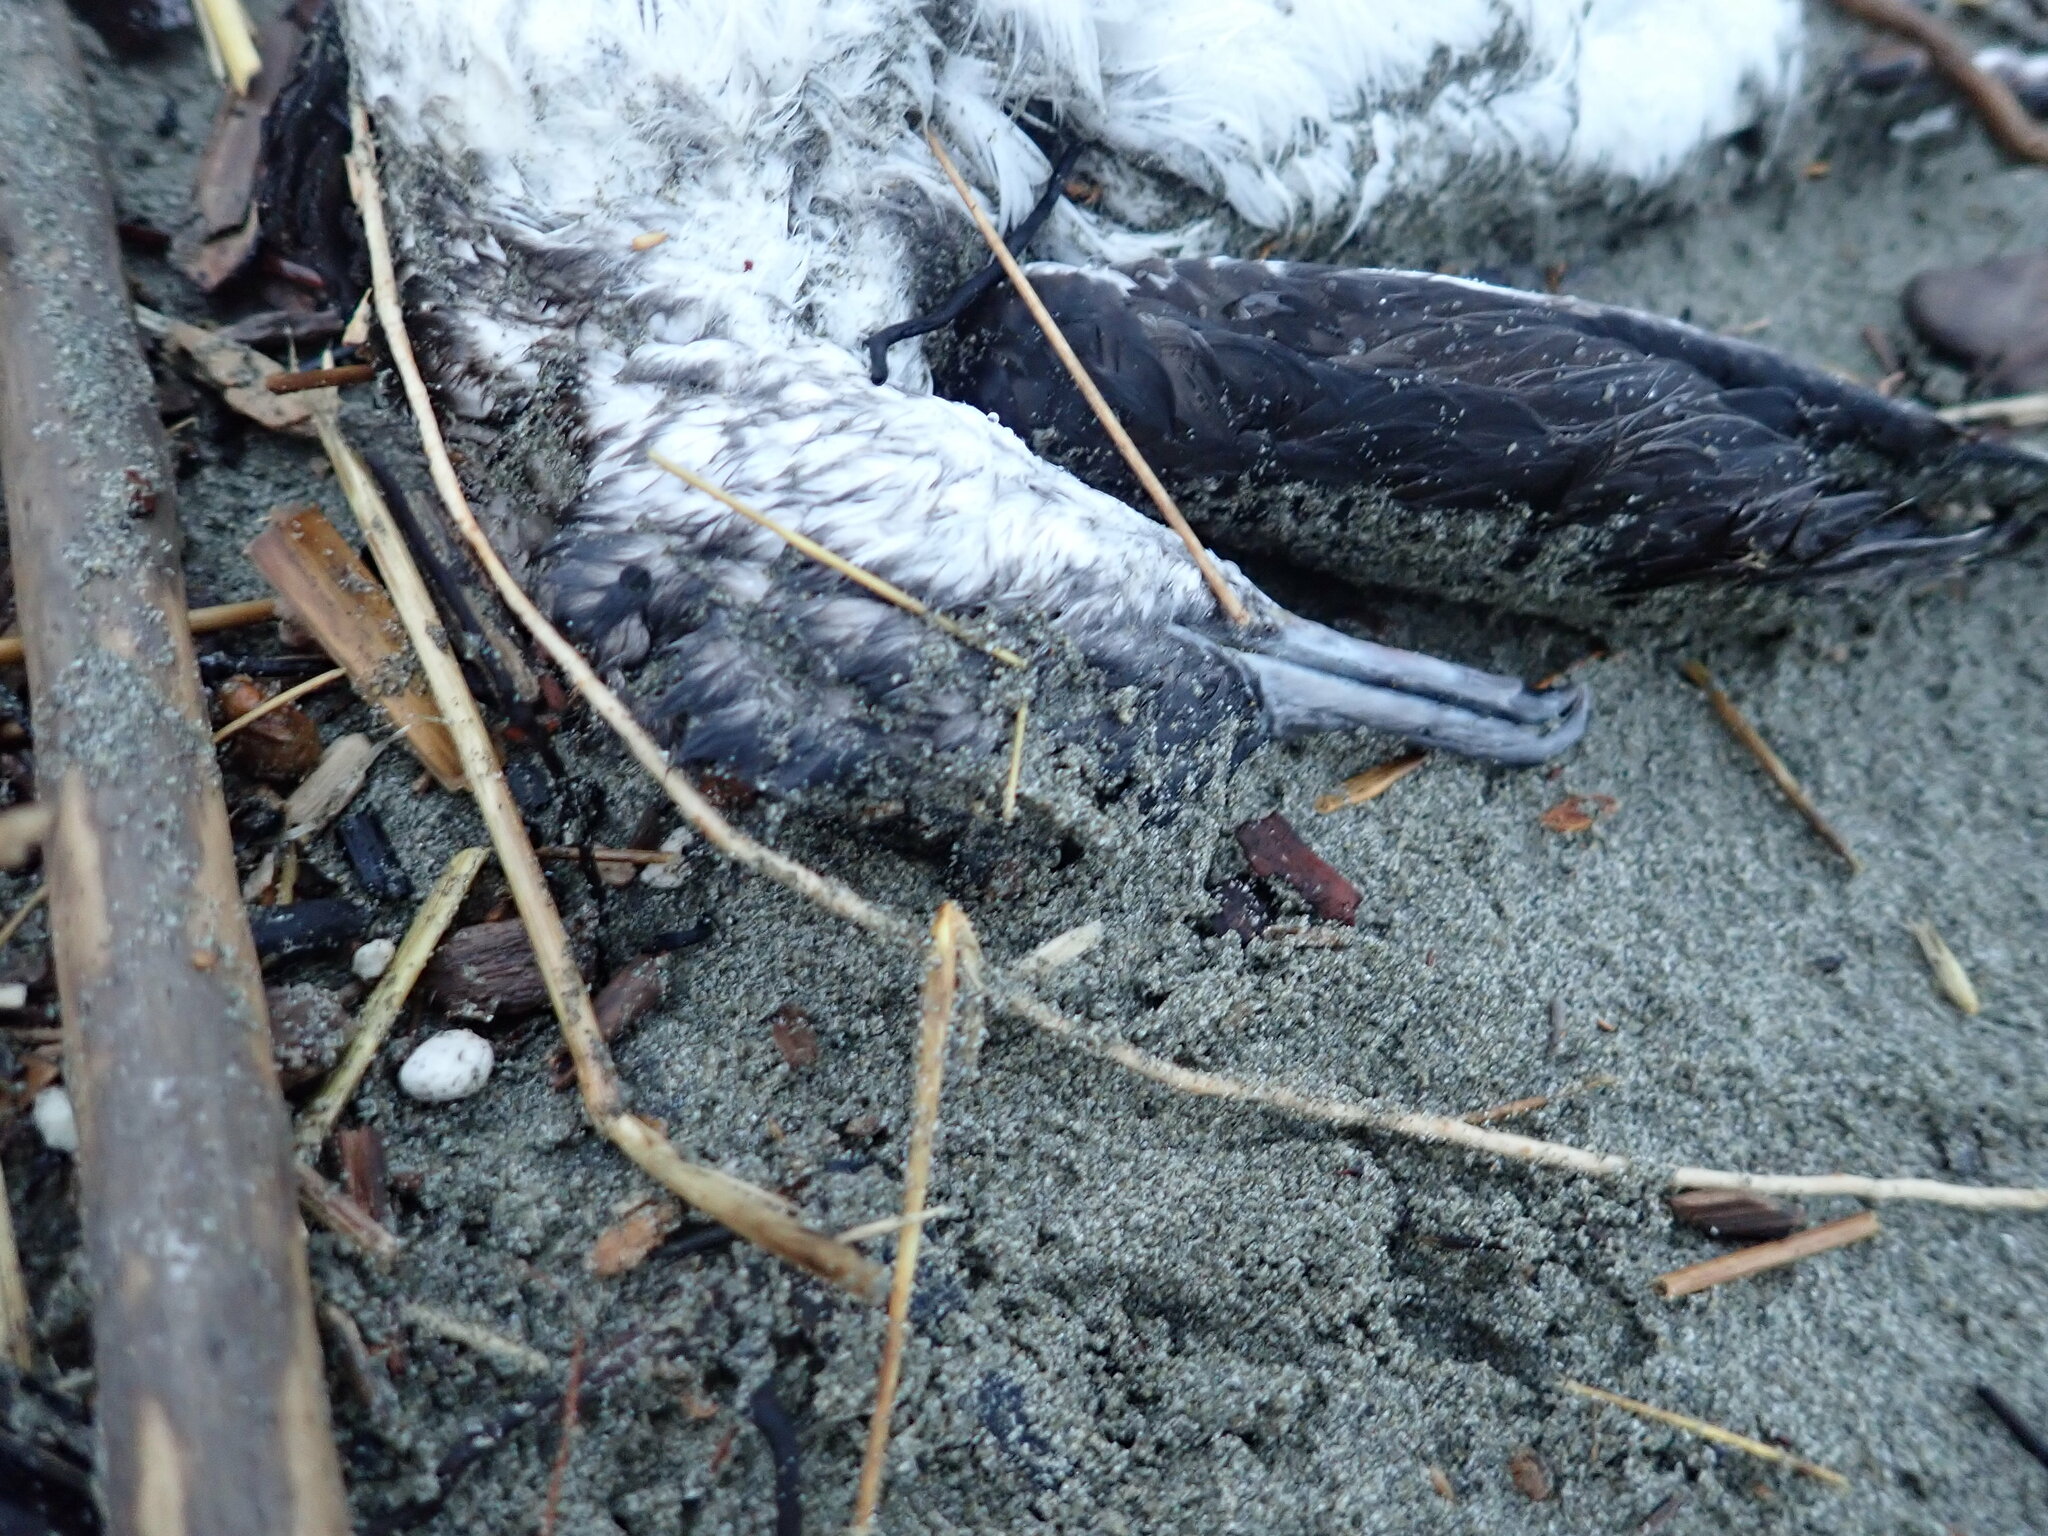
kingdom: Animalia
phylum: Chordata
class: Aves
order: Procellariiformes
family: Procellariidae
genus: Puffinus
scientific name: Puffinus gavia
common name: Fluttering shearwater
